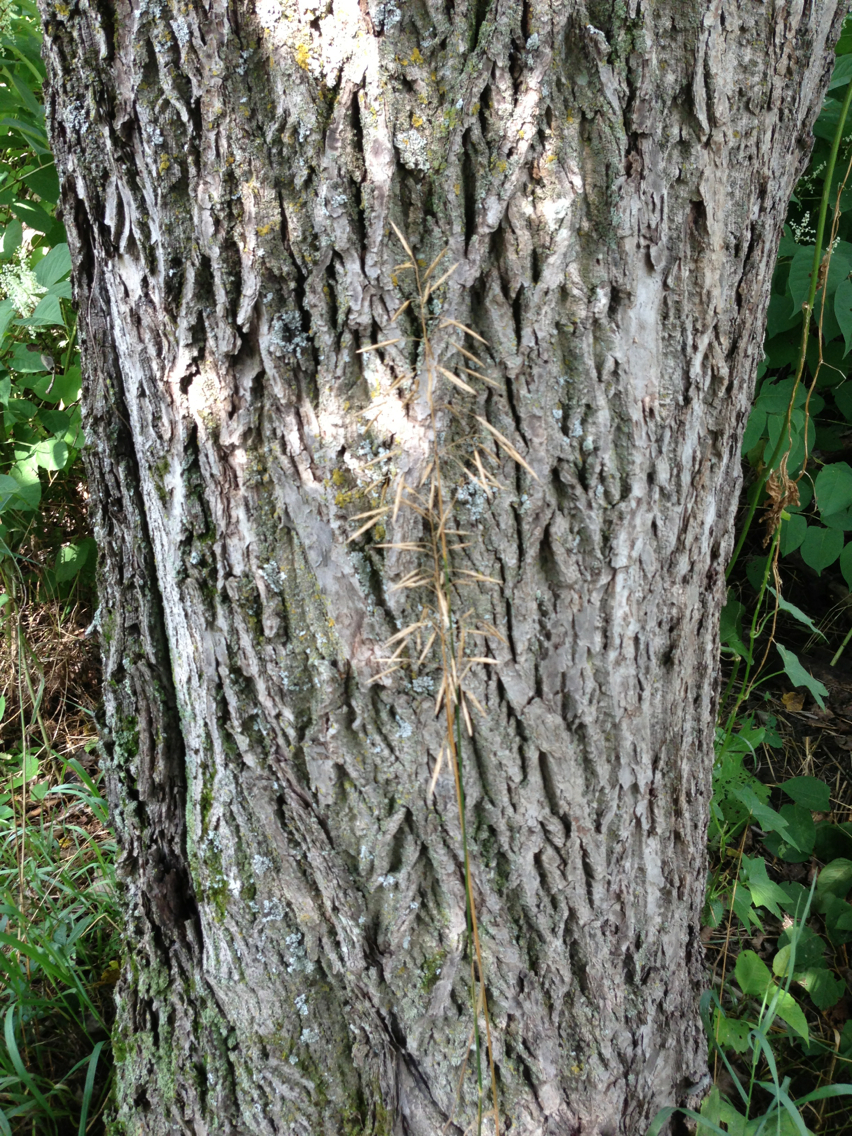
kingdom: Plantae
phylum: Tracheophyta
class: Liliopsida
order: Poales
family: Poaceae
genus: Bromus
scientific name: Bromus inermis
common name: Smooth brome
